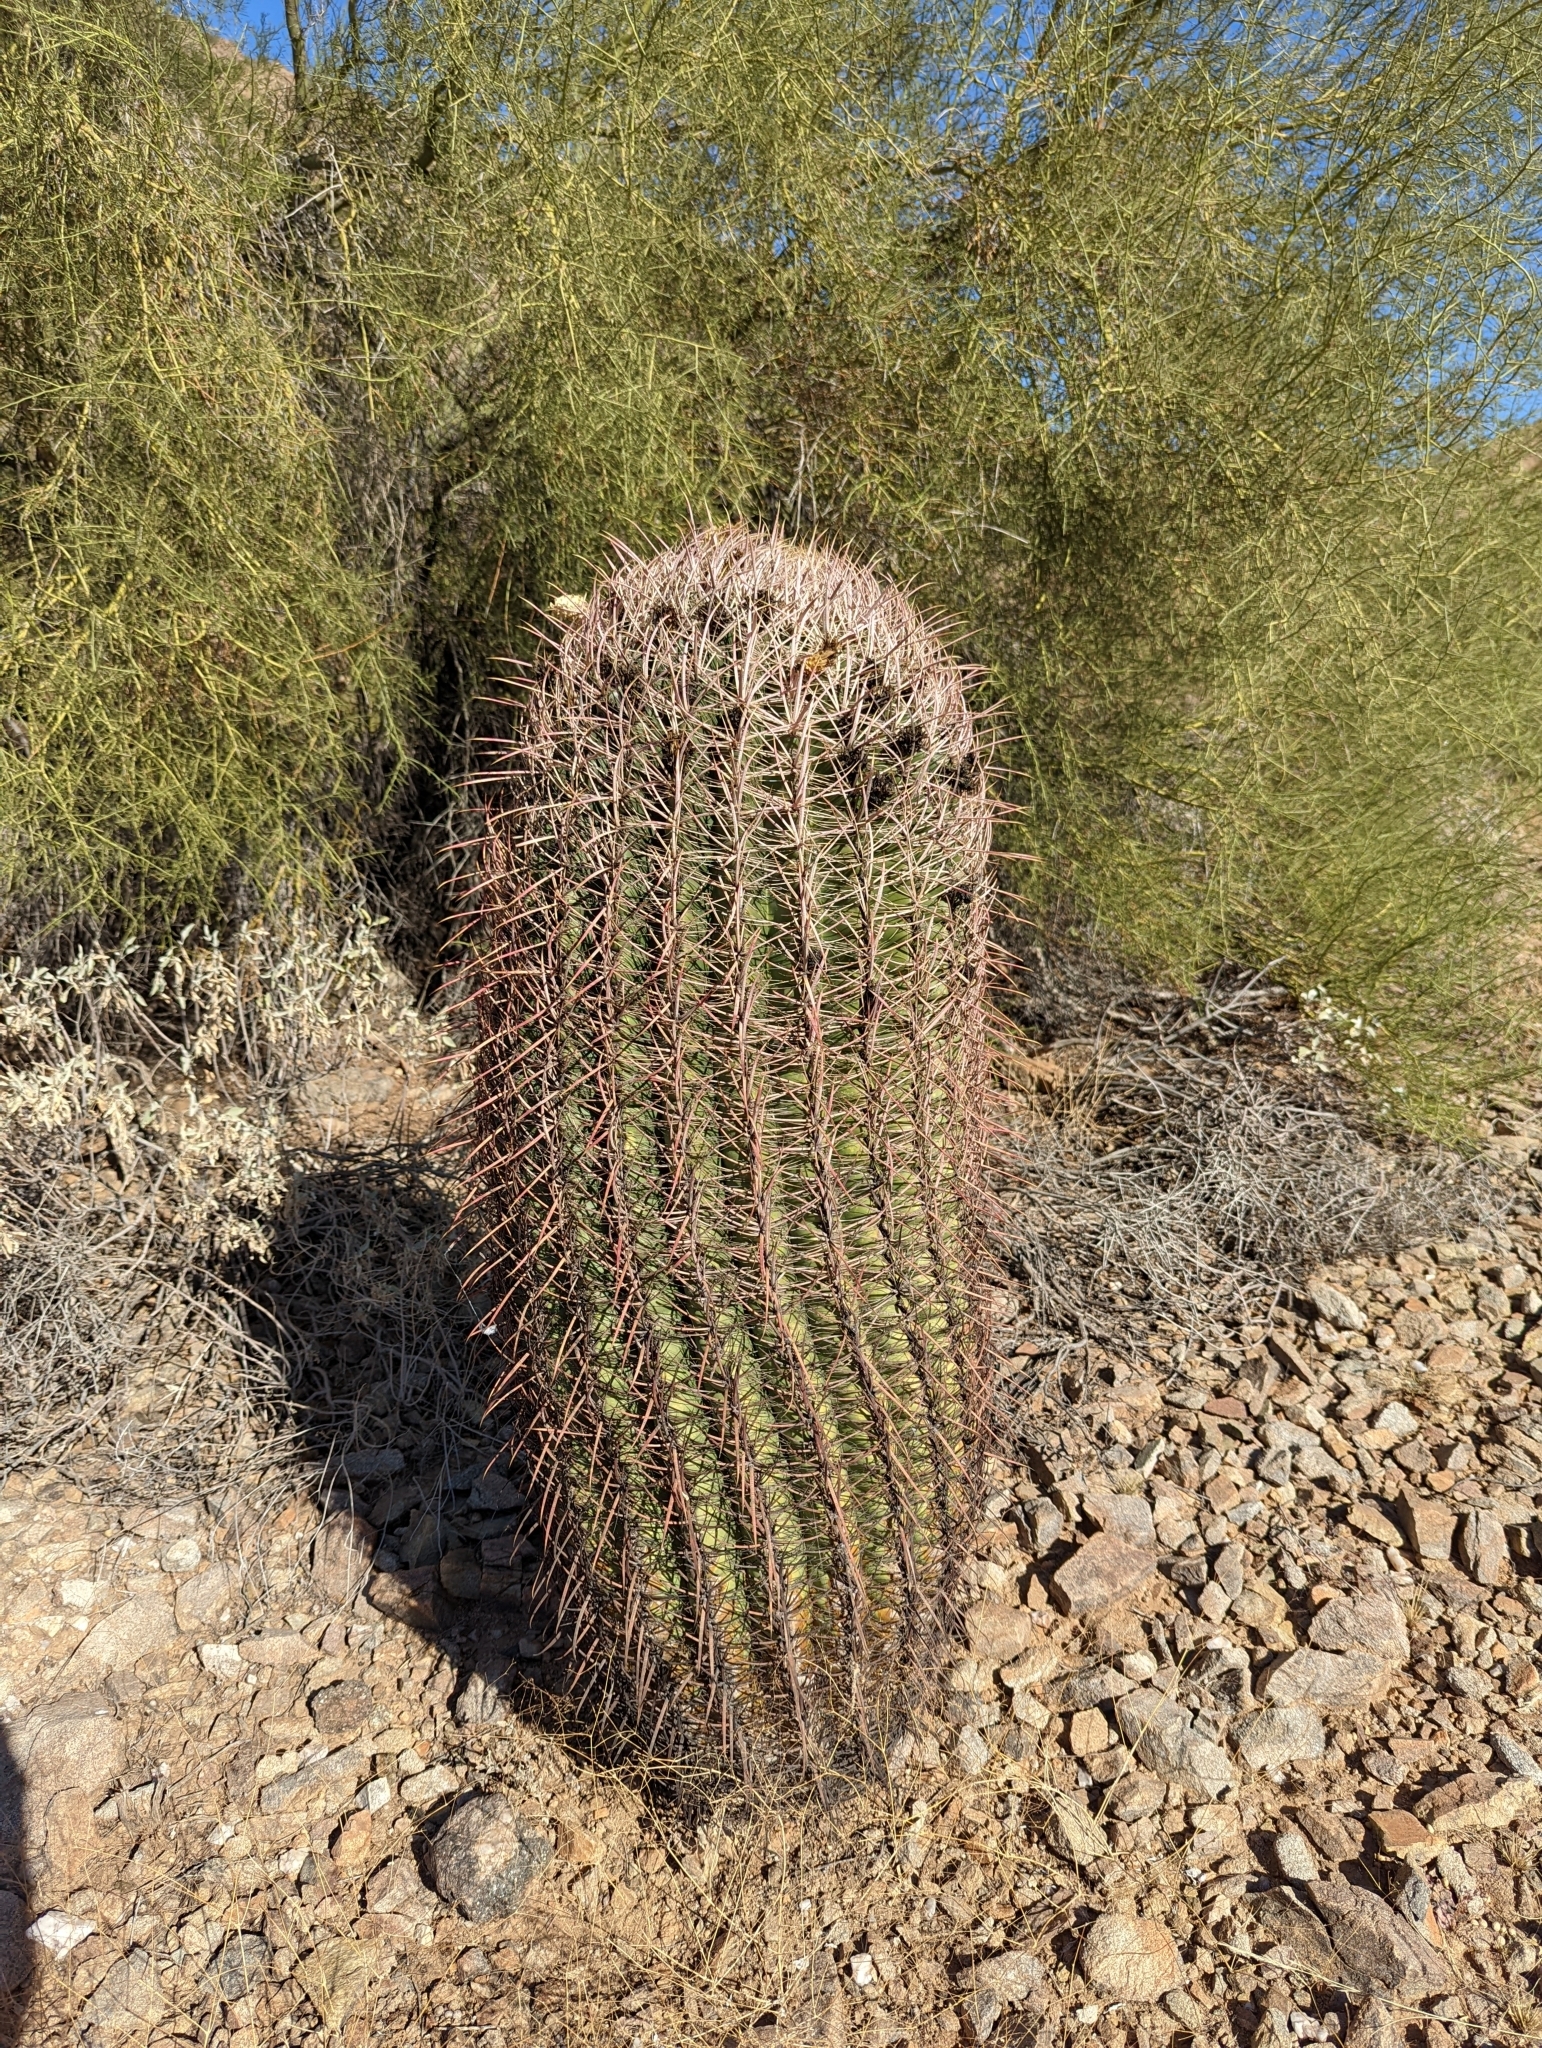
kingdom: Plantae
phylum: Tracheophyta
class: Magnoliopsida
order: Caryophyllales
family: Cactaceae
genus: Ferocactus
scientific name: Ferocactus cylindraceus
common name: California barrel cactus
